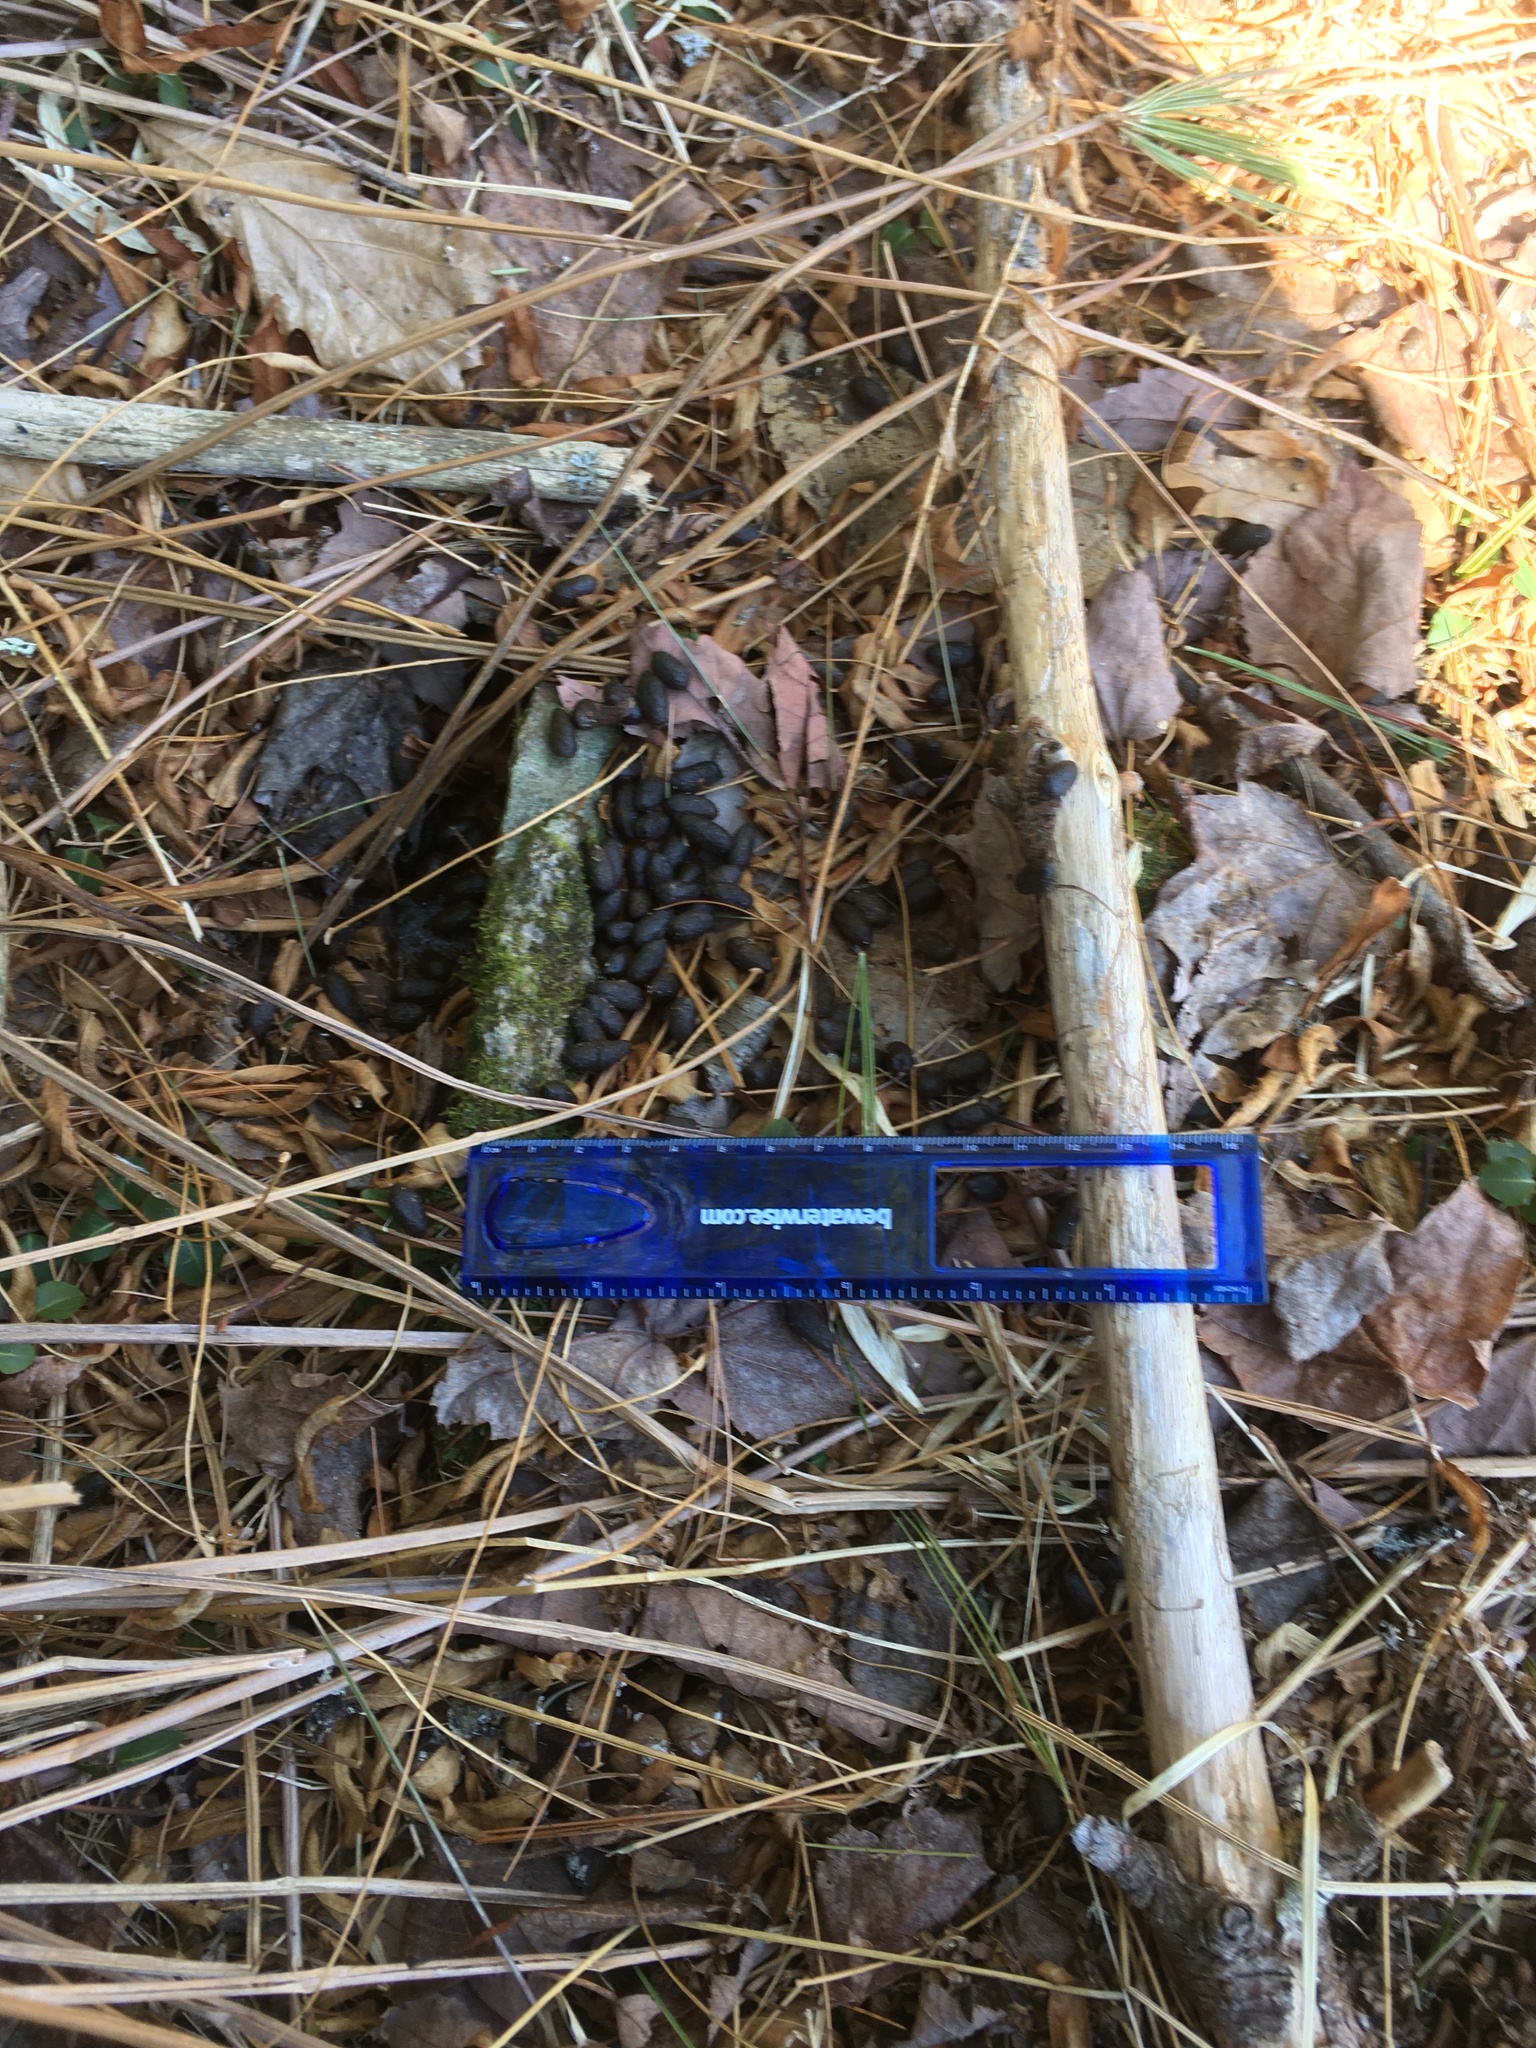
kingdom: Animalia
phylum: Chordata
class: Mammalia
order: Artiodactyla
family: Cervidae
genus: Odocoileus
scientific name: Odocoileus virginianus
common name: White-tailed deer
